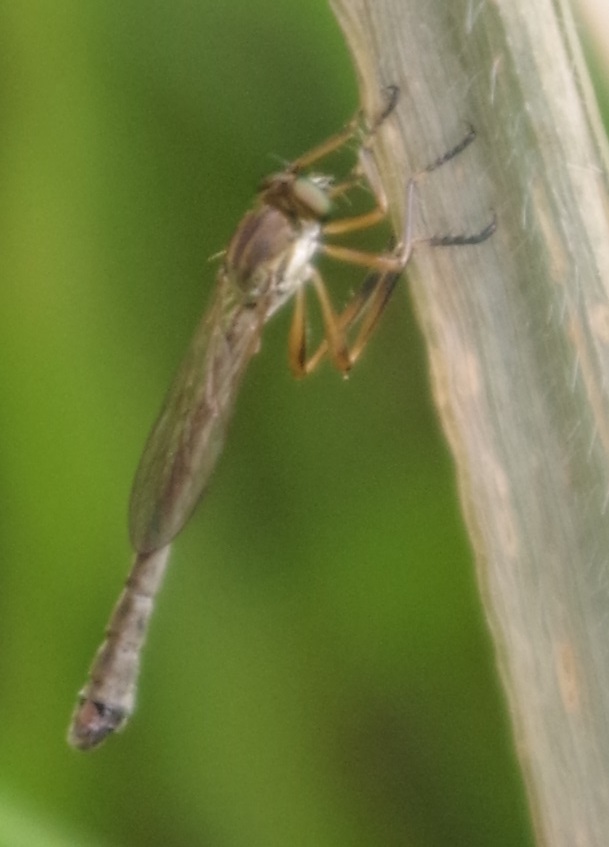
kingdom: Animalia
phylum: Arthropoda
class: Insecta
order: Diptera
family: Asilidae
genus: Leptogaster
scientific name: Leptogaster cylindrica
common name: Striped slender robberfly
